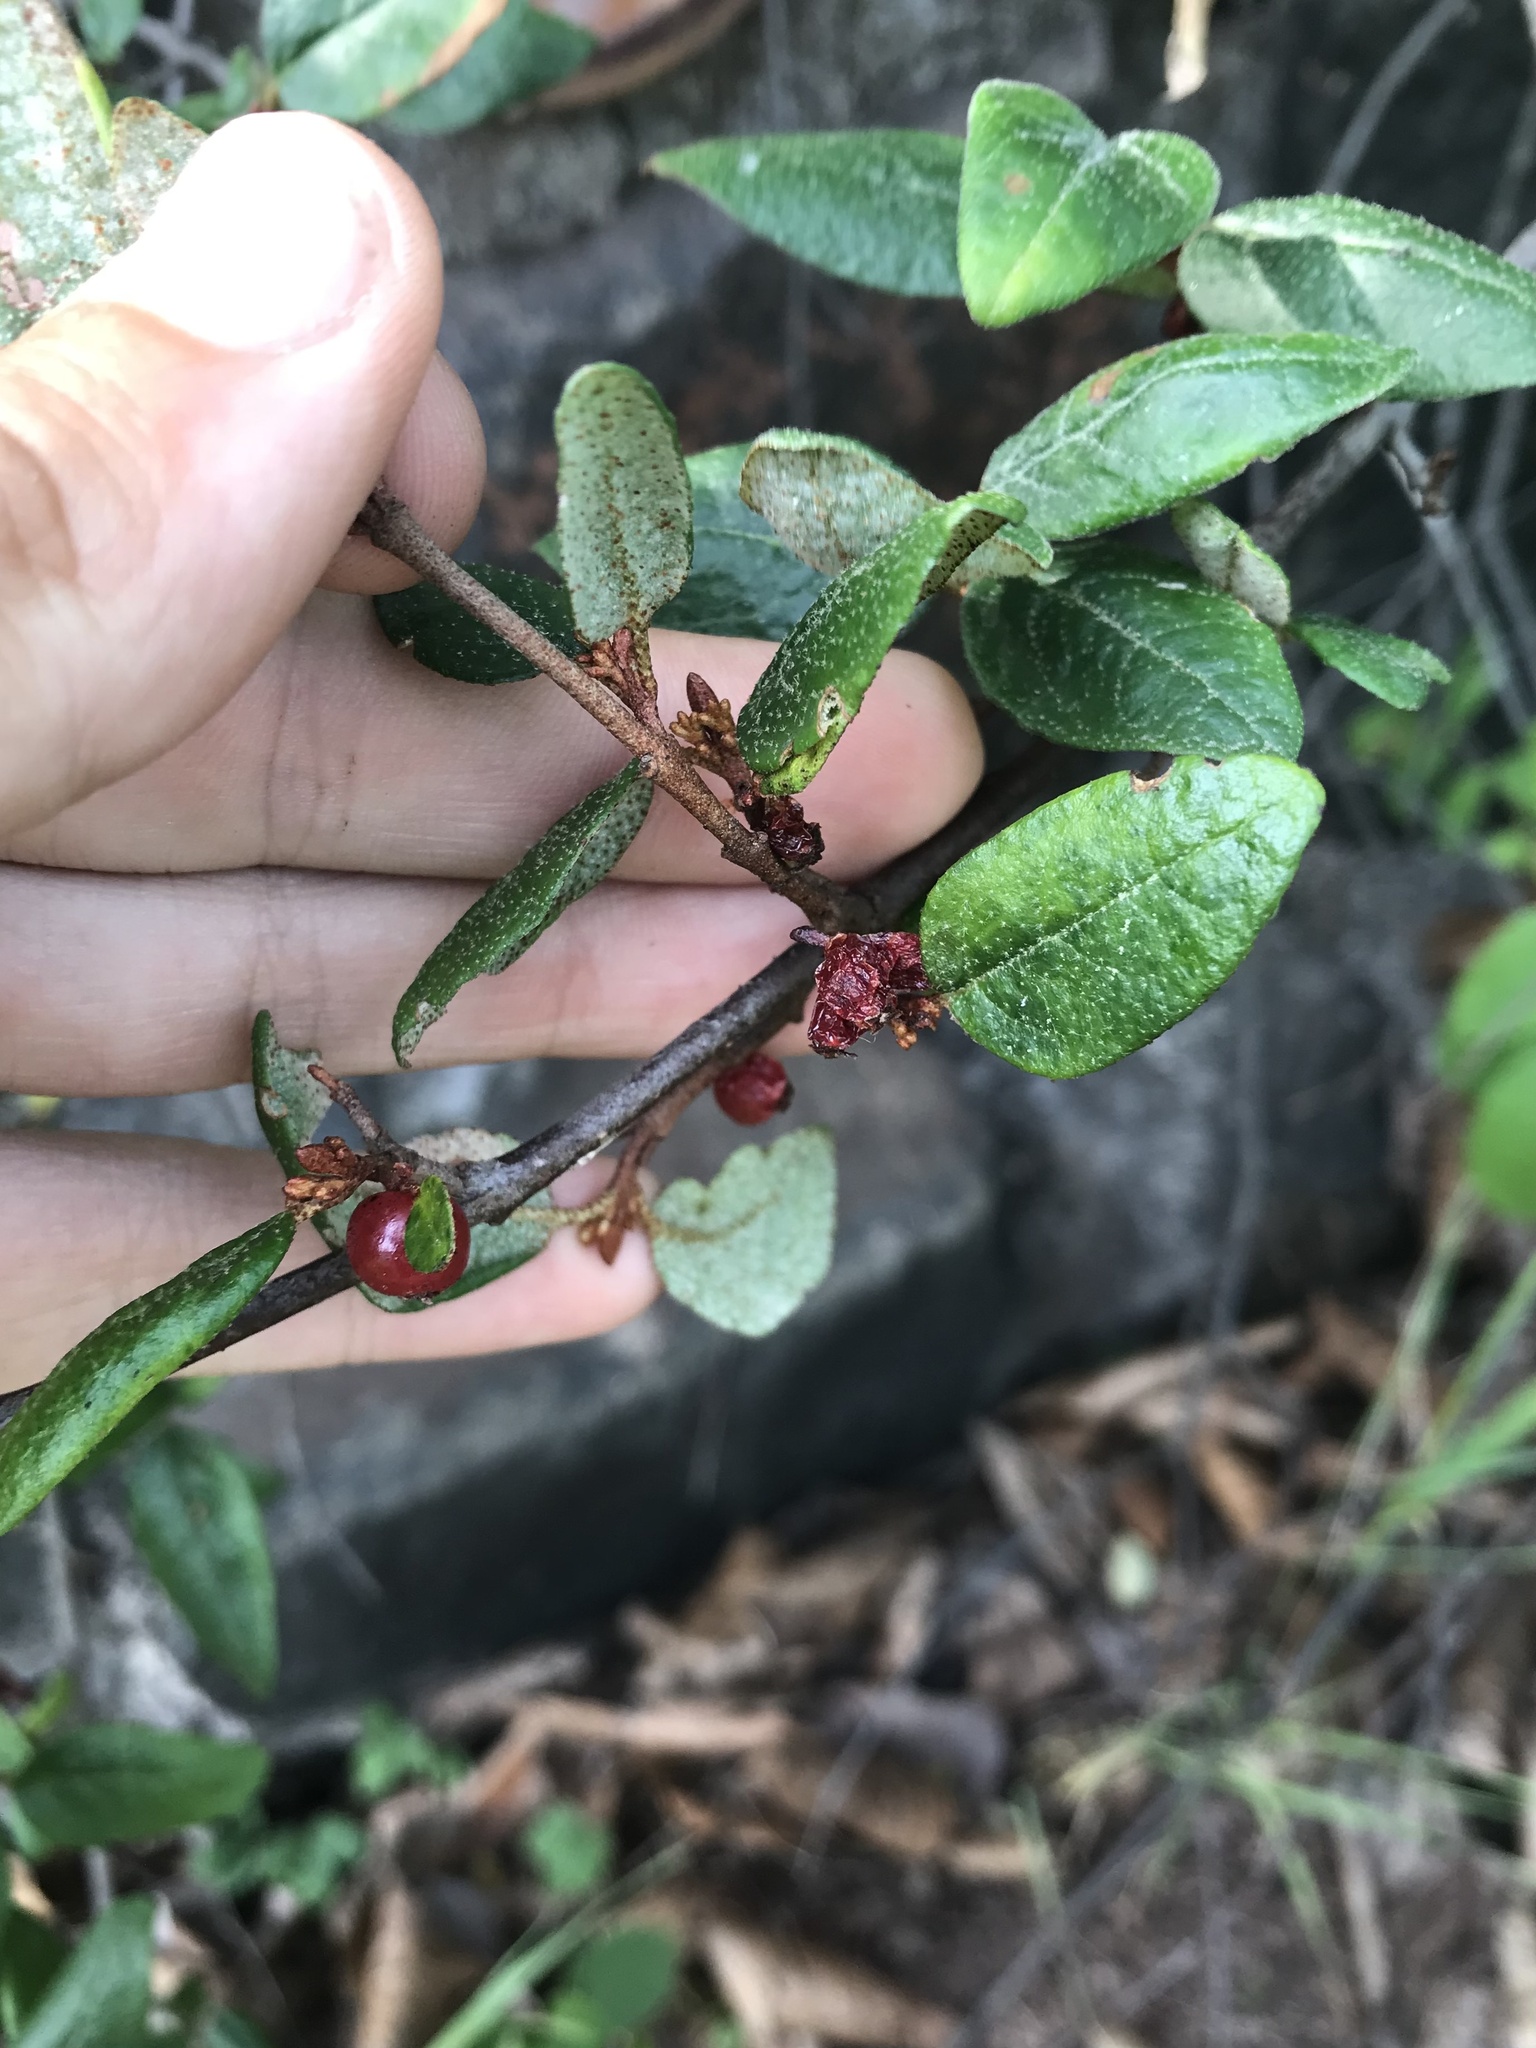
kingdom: Plantae
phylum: Tracheophyta
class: Magnoliopsida
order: Rosales
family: Elaeagnaceae
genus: Shepherdia
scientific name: Shepherdia canadensis
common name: Soapberry
